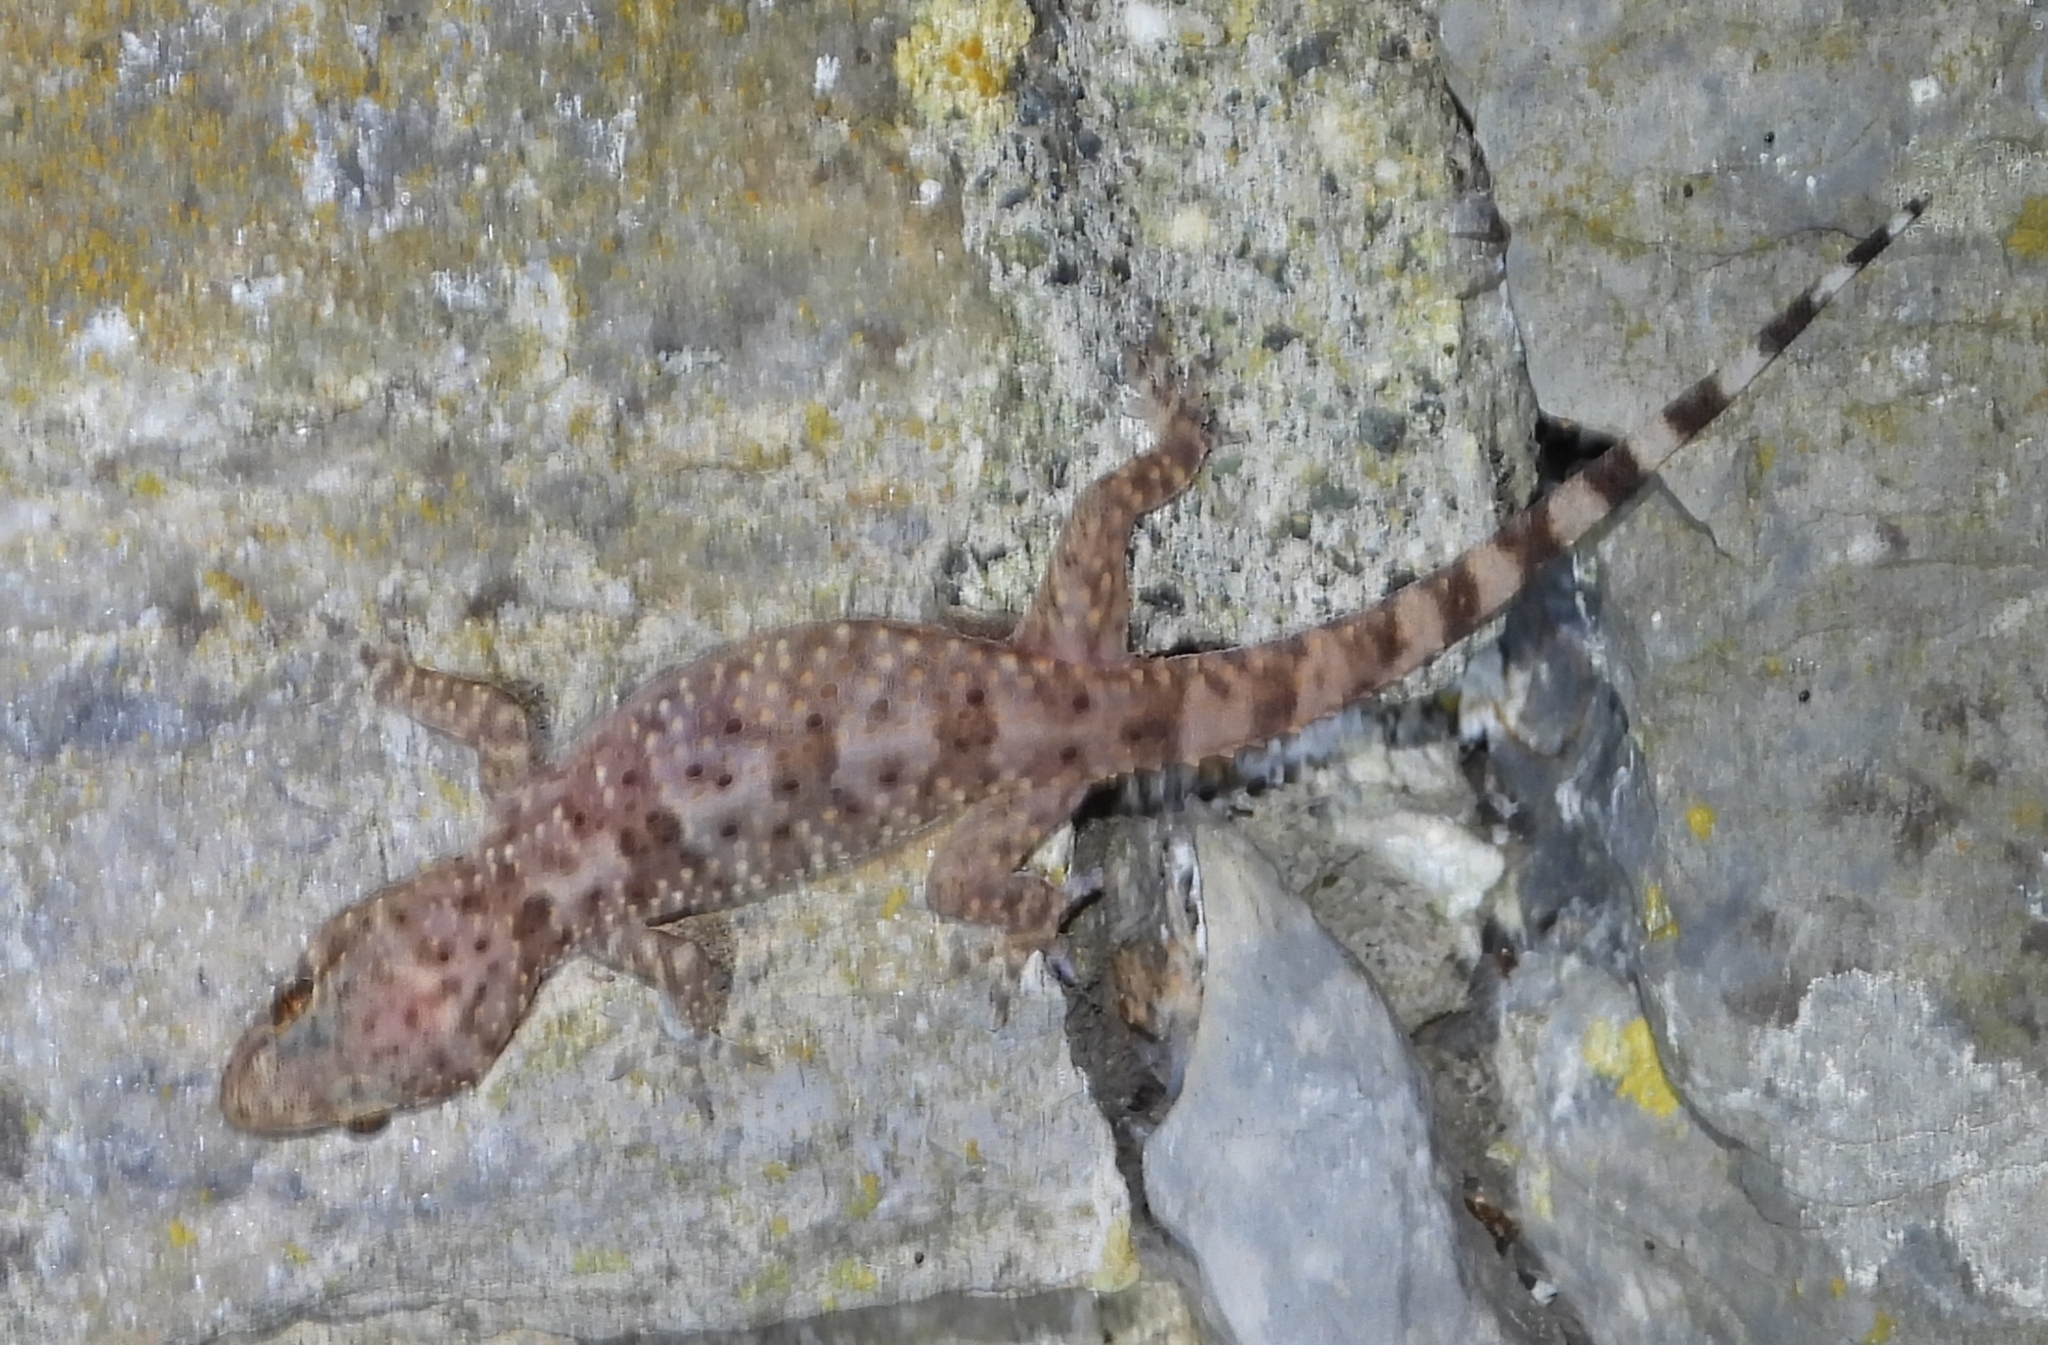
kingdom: Animalia
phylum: Chordata
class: Squamata
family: Gekkonidae
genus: Hemidactylus
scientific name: Hemidactylus turcicus
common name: Turkish gecko
